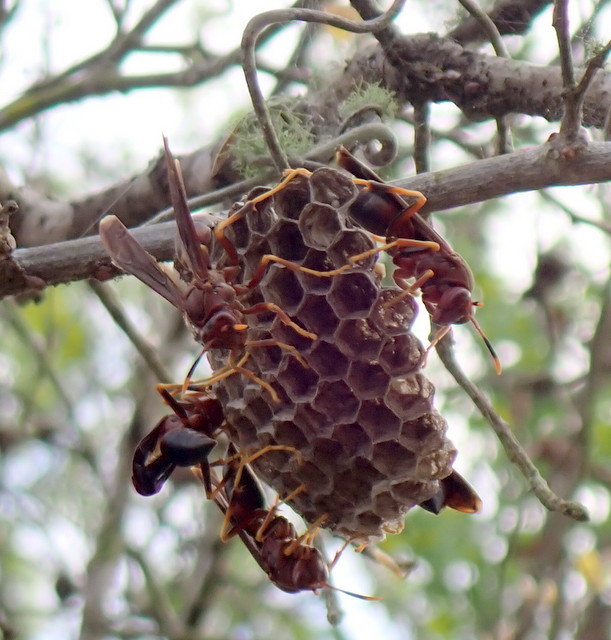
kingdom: Animalia
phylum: Arthropoda
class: Insecta
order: Hymenoptera
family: Eumenidae
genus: Polistes
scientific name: Polistes annularis
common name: Ringed paper wasp
